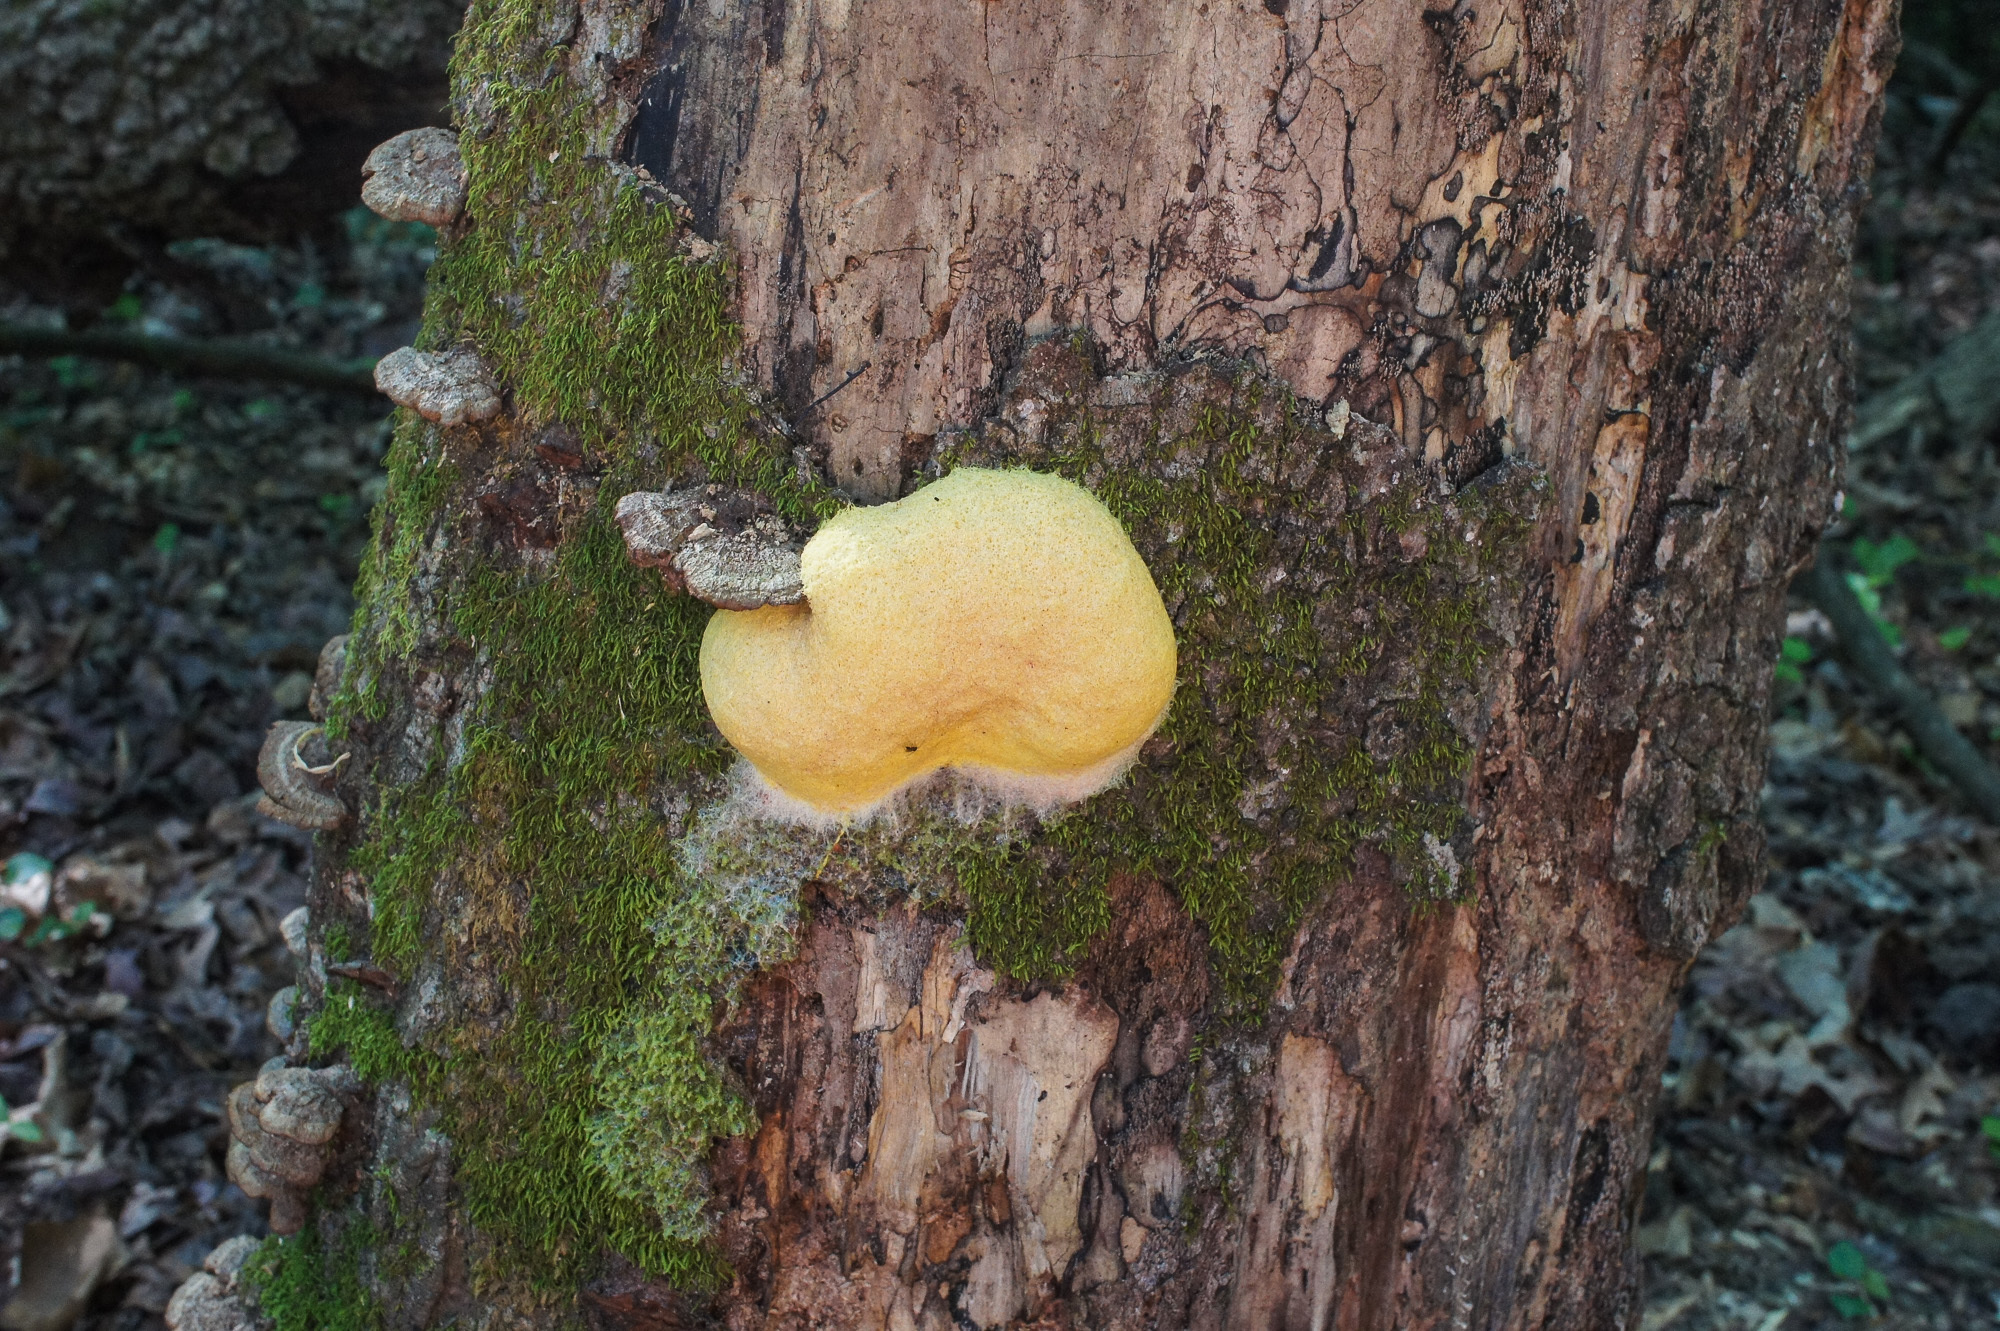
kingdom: Protozoa
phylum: Mycetozoa
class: Myxomycetes
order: Physarales
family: Physaraceae
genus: Fuligo
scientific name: Fuligo septica
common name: Dog vomit slime mold
